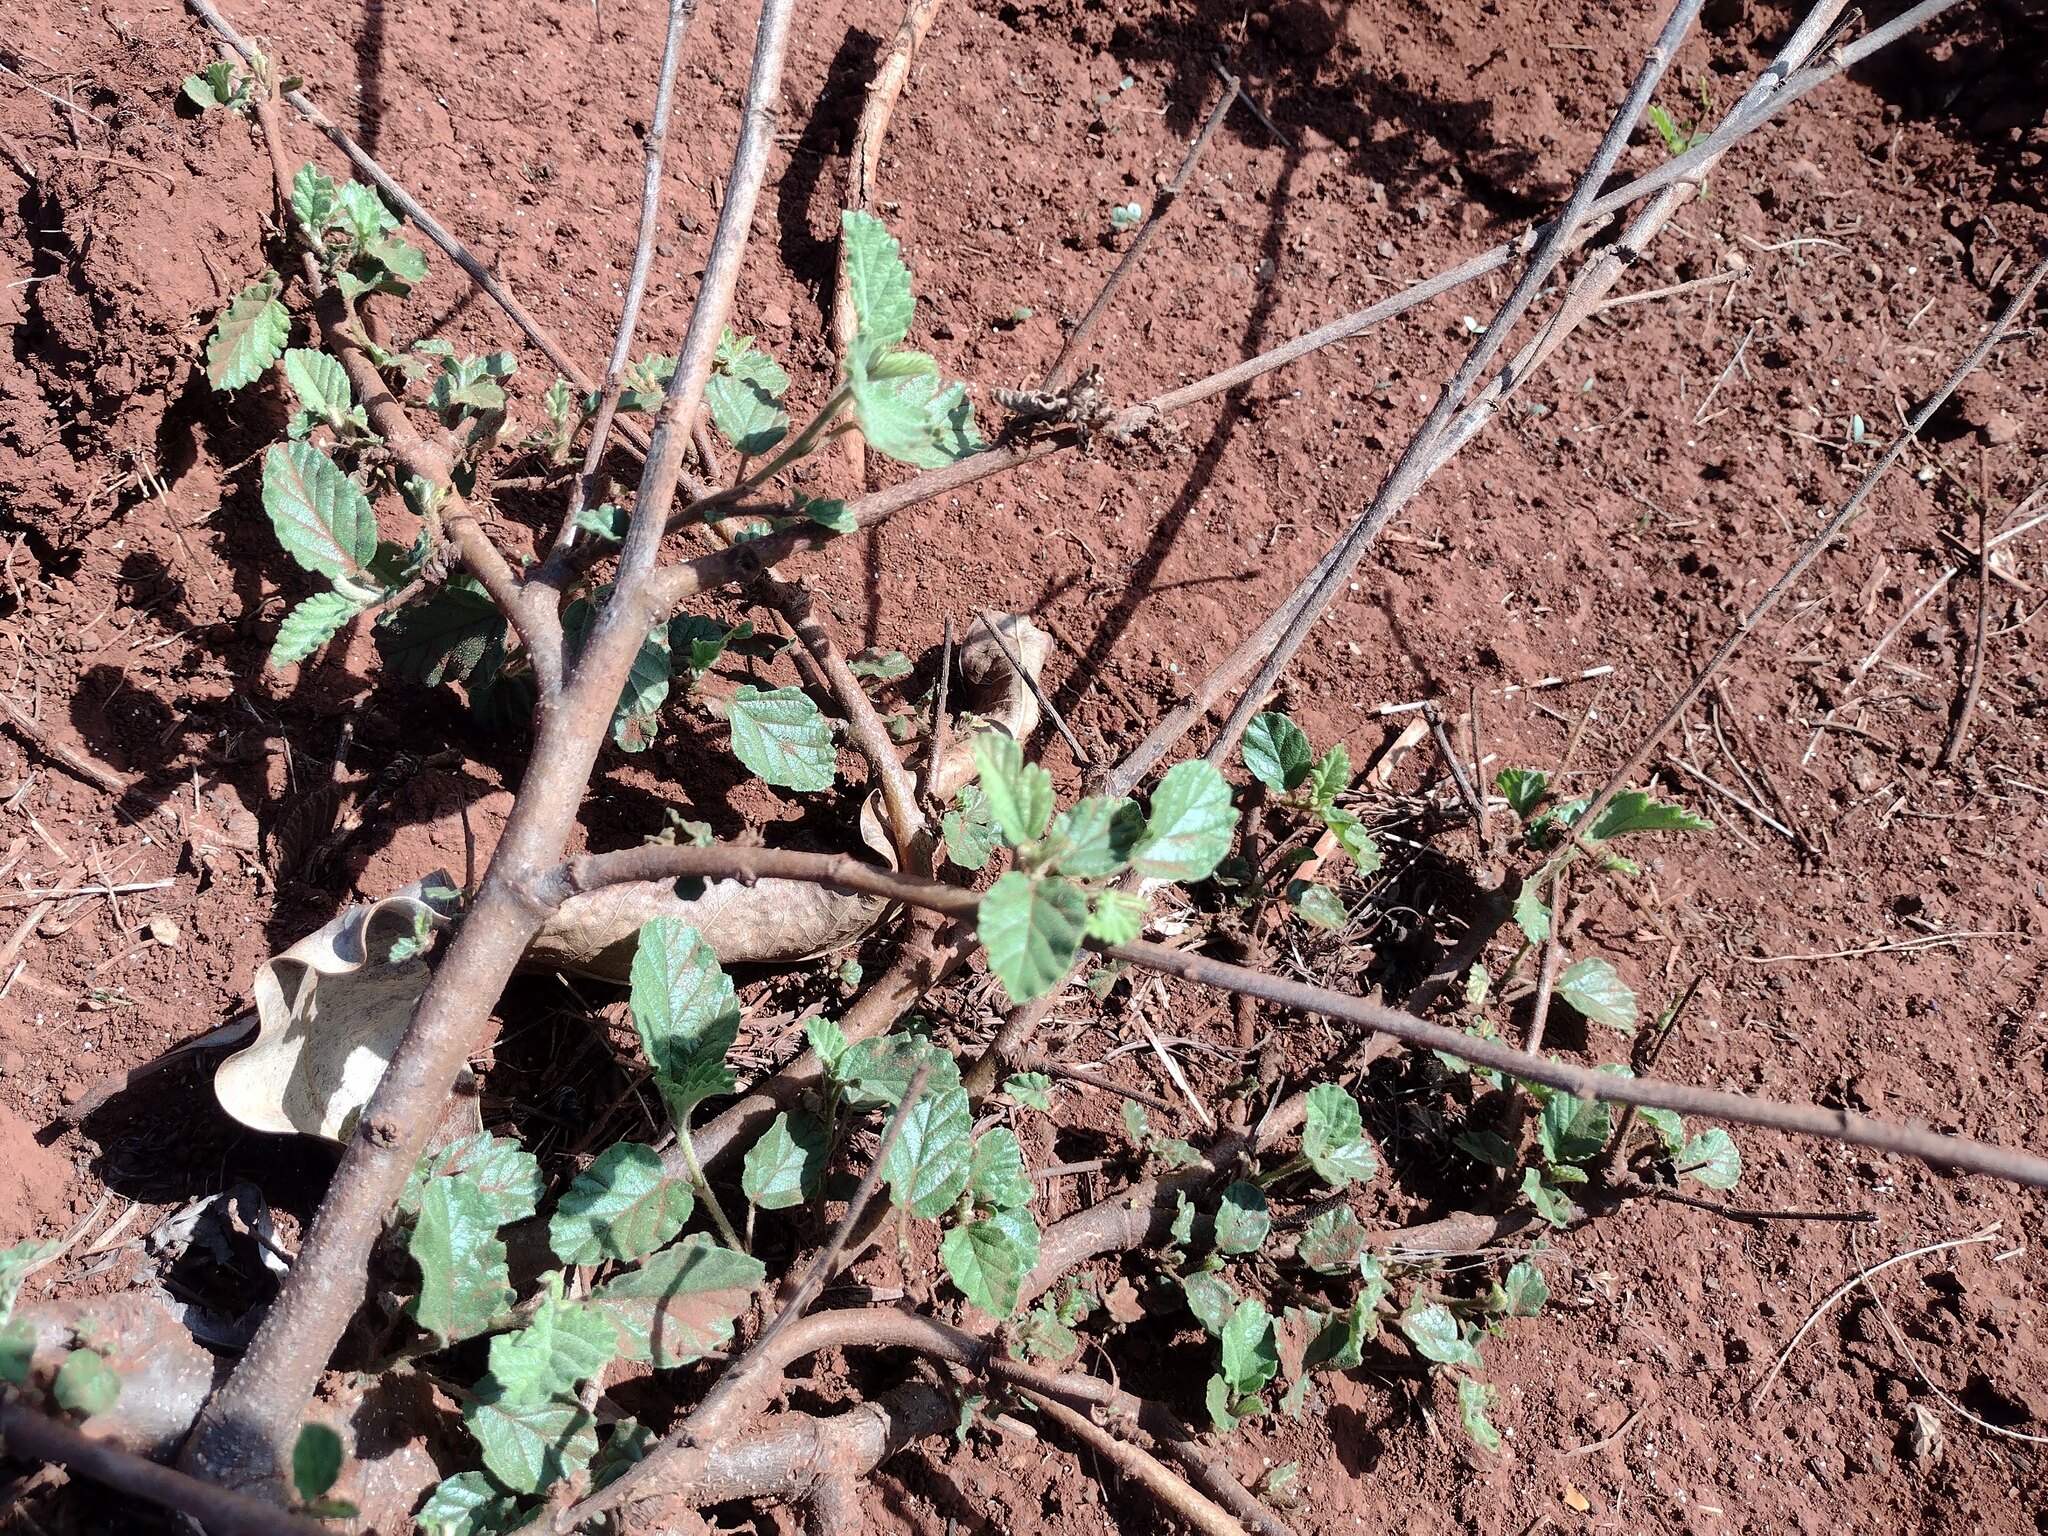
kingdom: Plantae
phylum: Tracheophyta
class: Magnoliopsida
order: Malvales
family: Malvaceae
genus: Waltheria
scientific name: Waltheria indica
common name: Leather-coat
